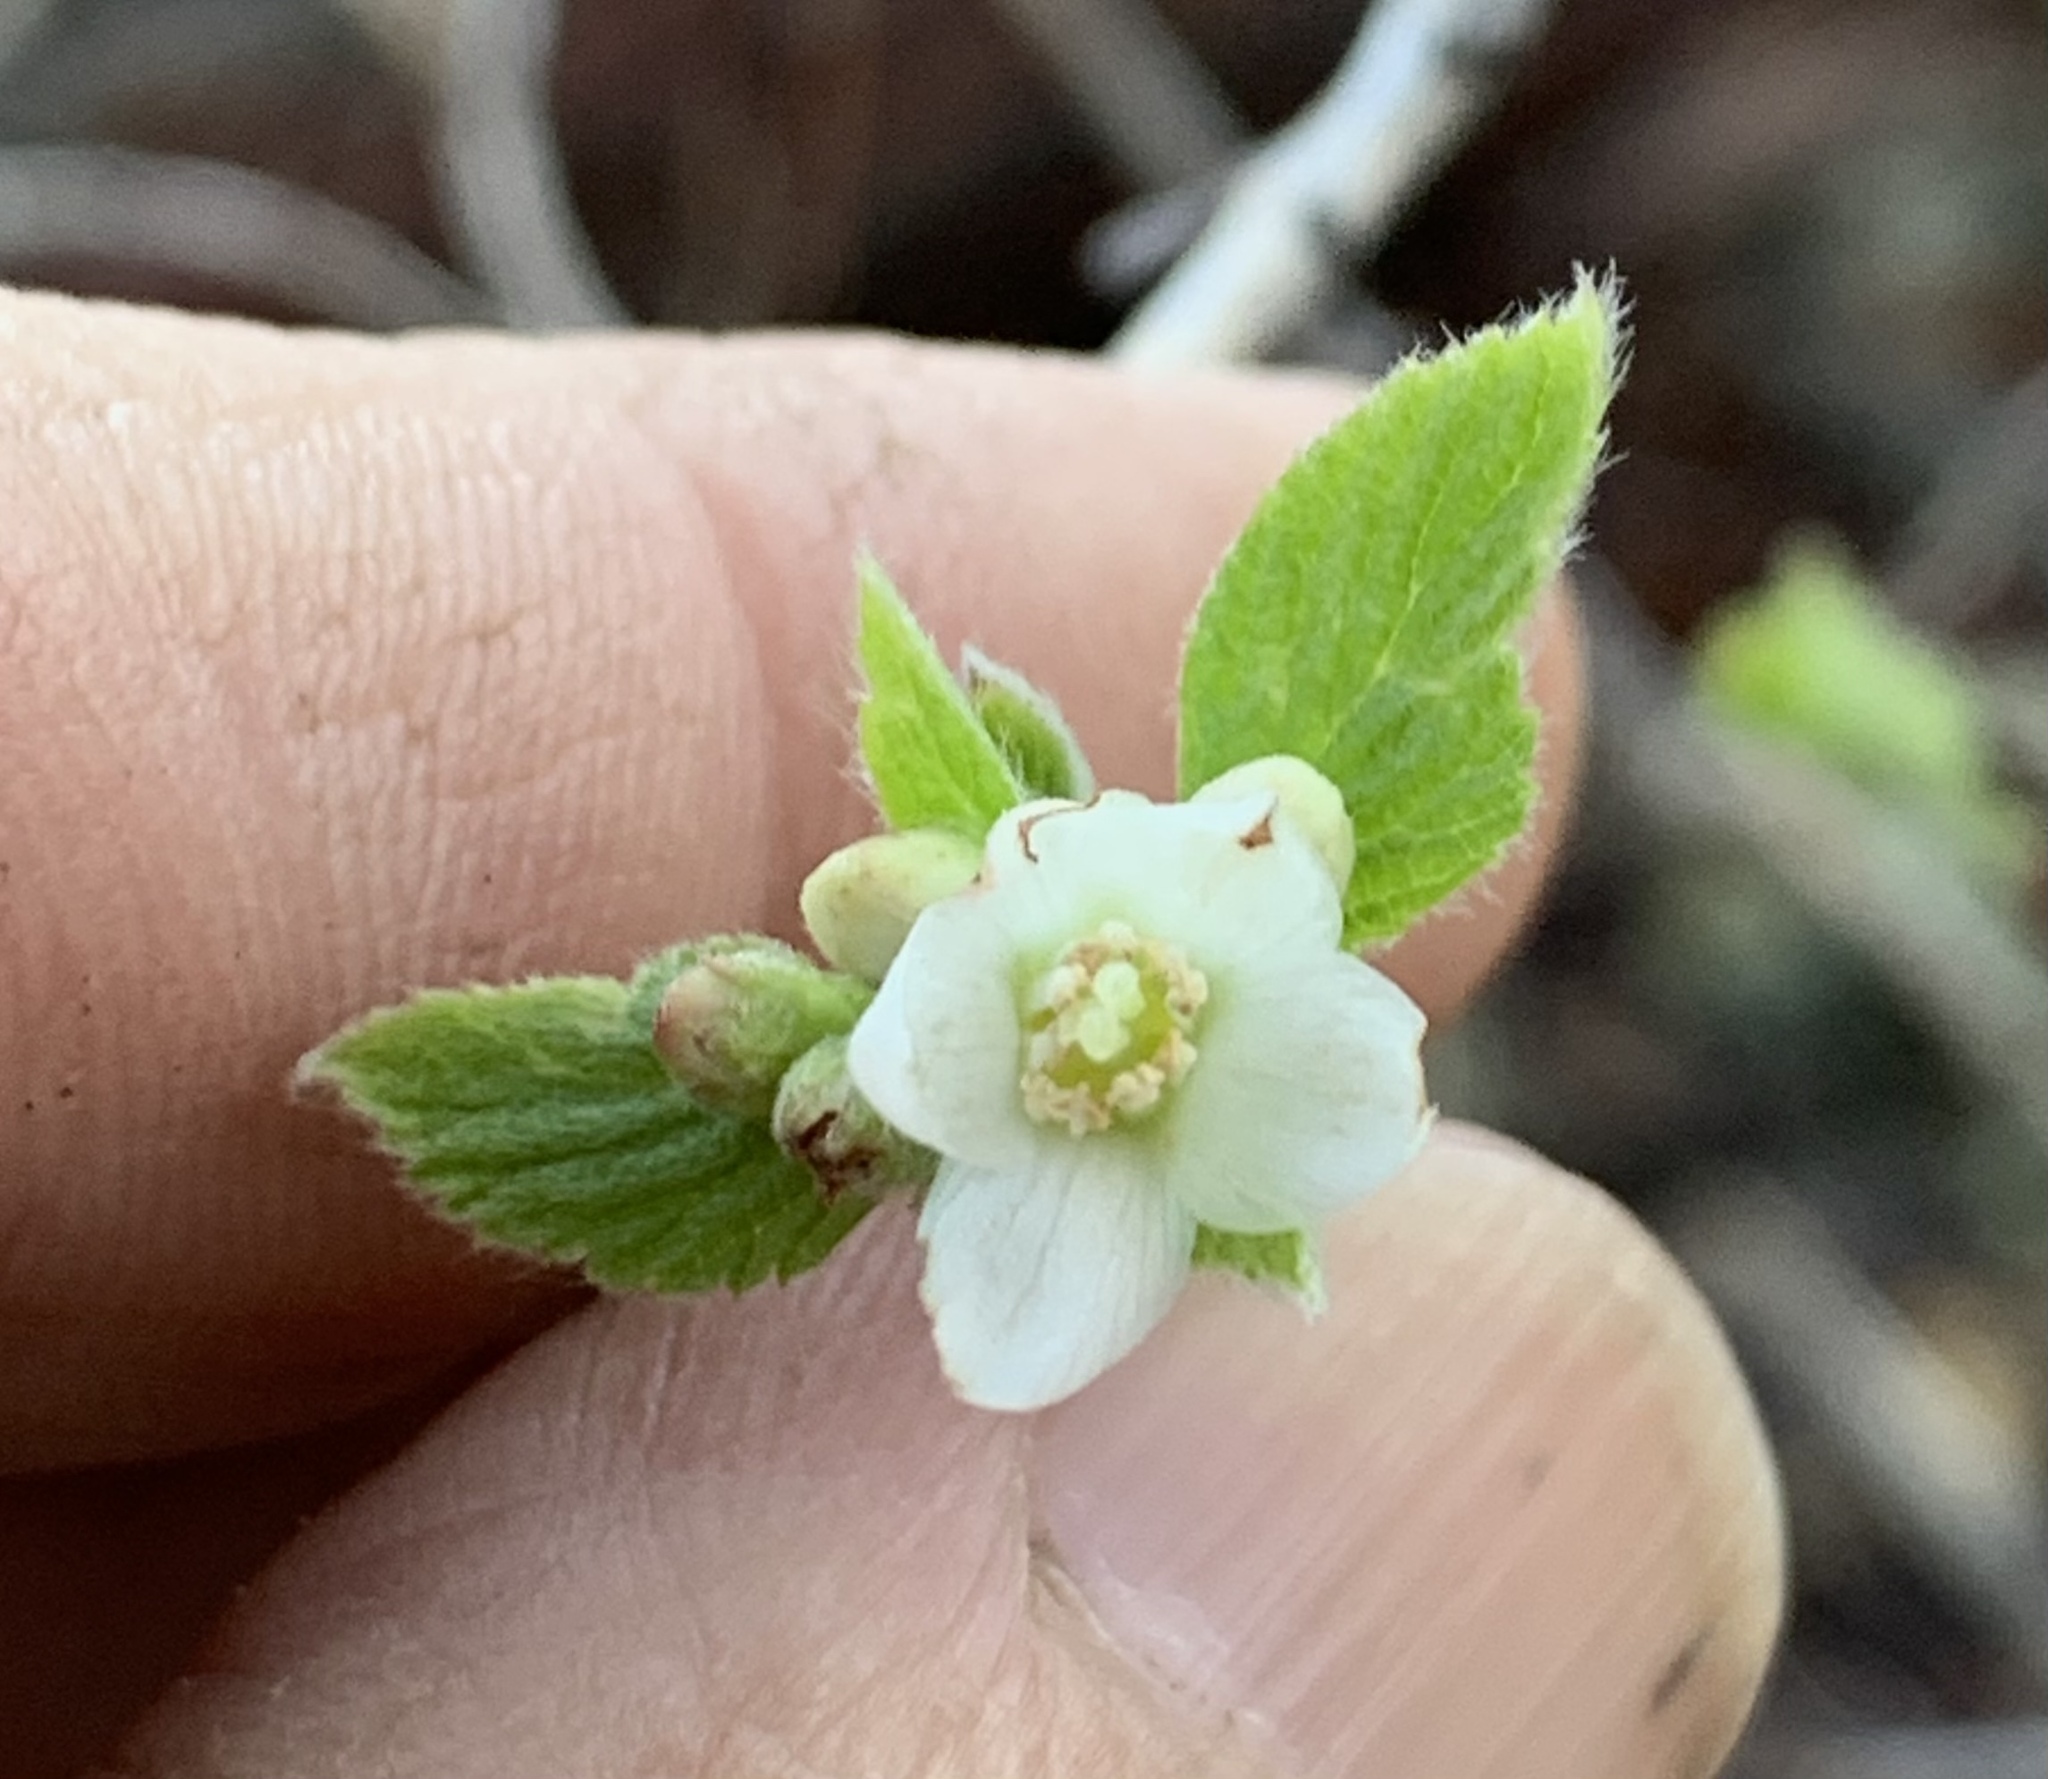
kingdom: Plantae
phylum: Tracheophyta
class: Magnoliopsida
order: Cornales
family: Hydrangeaceae
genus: Jamesia
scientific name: Jamesia americana
